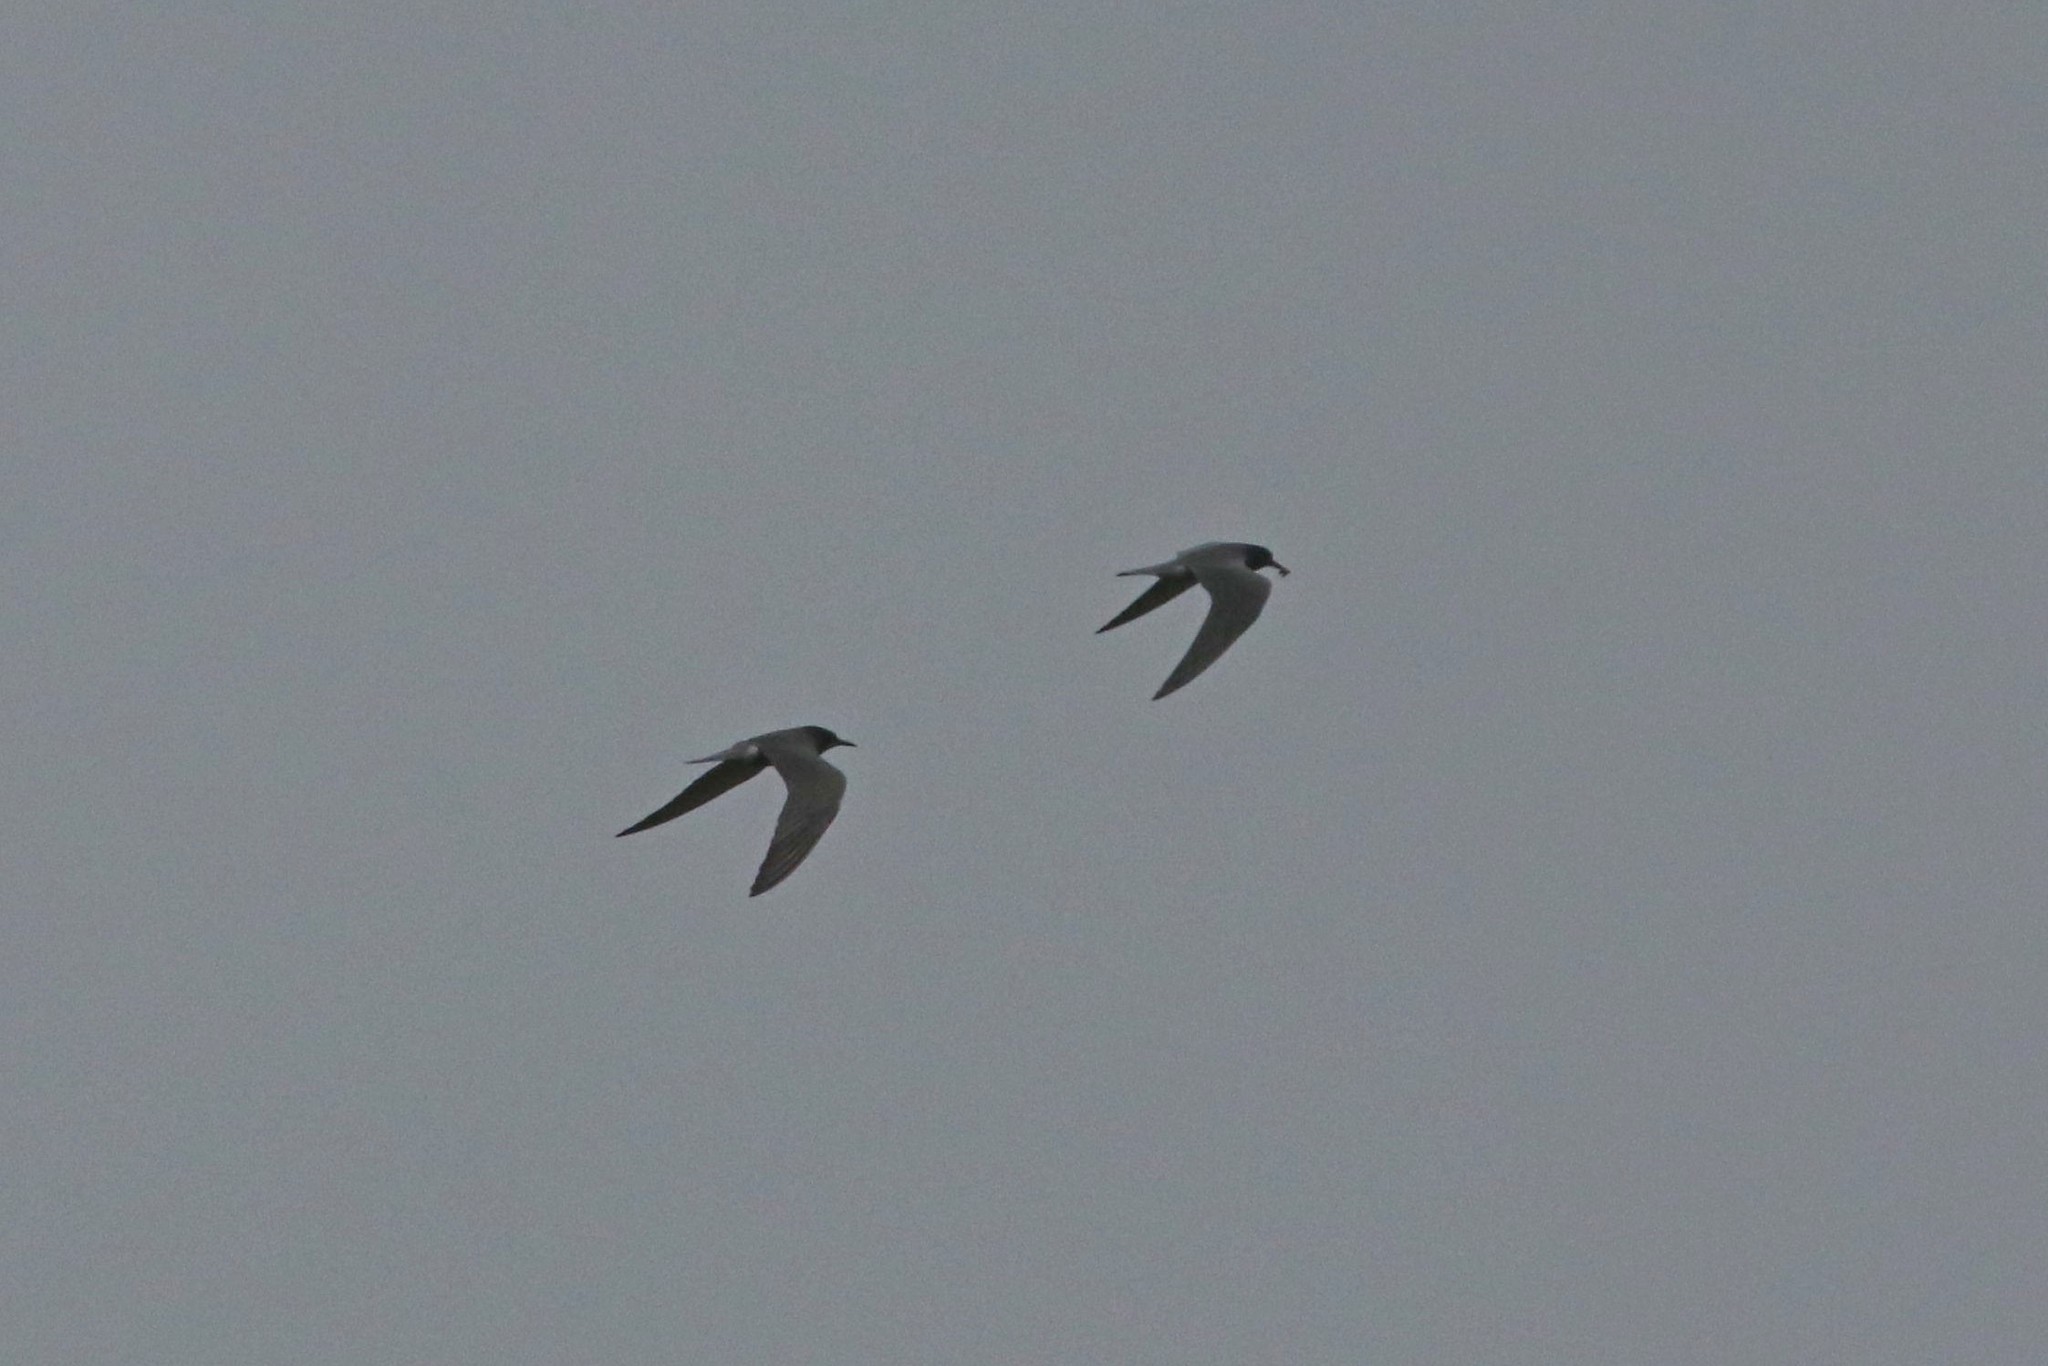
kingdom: Animalia
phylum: Chordata
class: Aves
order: Charadriiformes
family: Laridae
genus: Chlidonias
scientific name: Chlidonias niger
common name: Black tern
